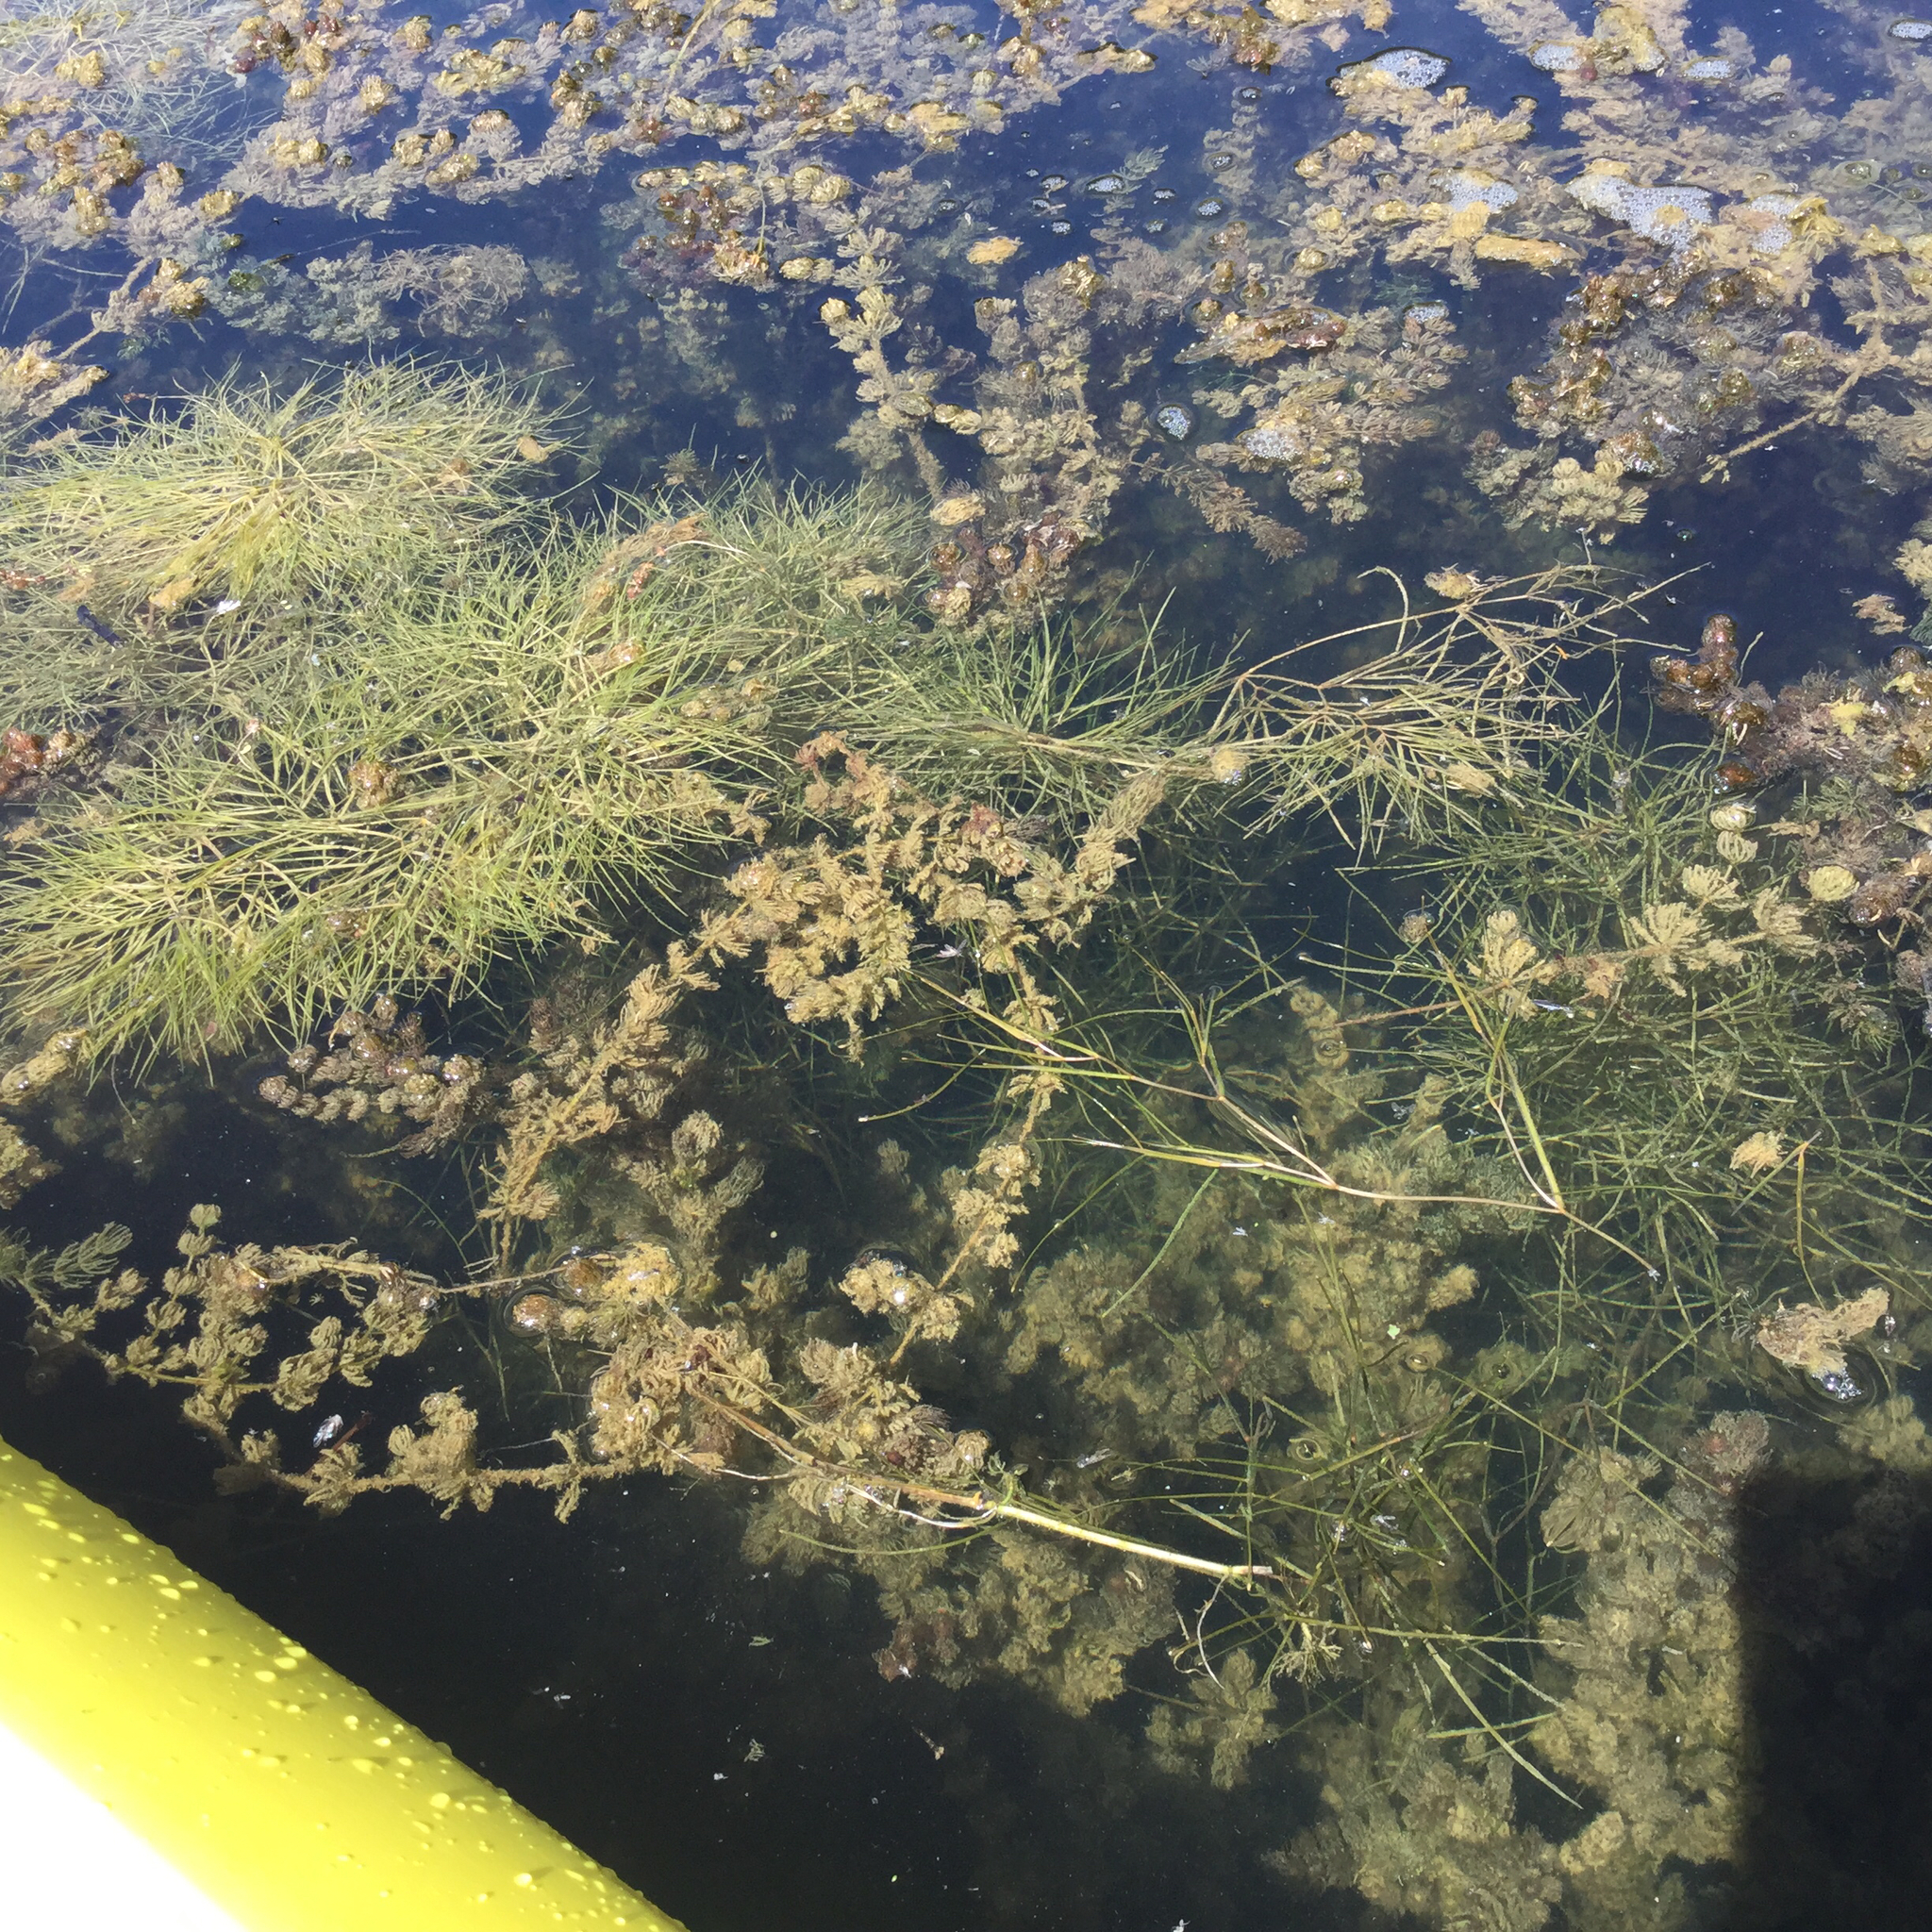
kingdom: Plantae
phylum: Tracheophyta
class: Liliopsida
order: Alismatales
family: Potamogetonaceae
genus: Stuckenia
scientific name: Stuckenia pectinata
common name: Sago pondweed
